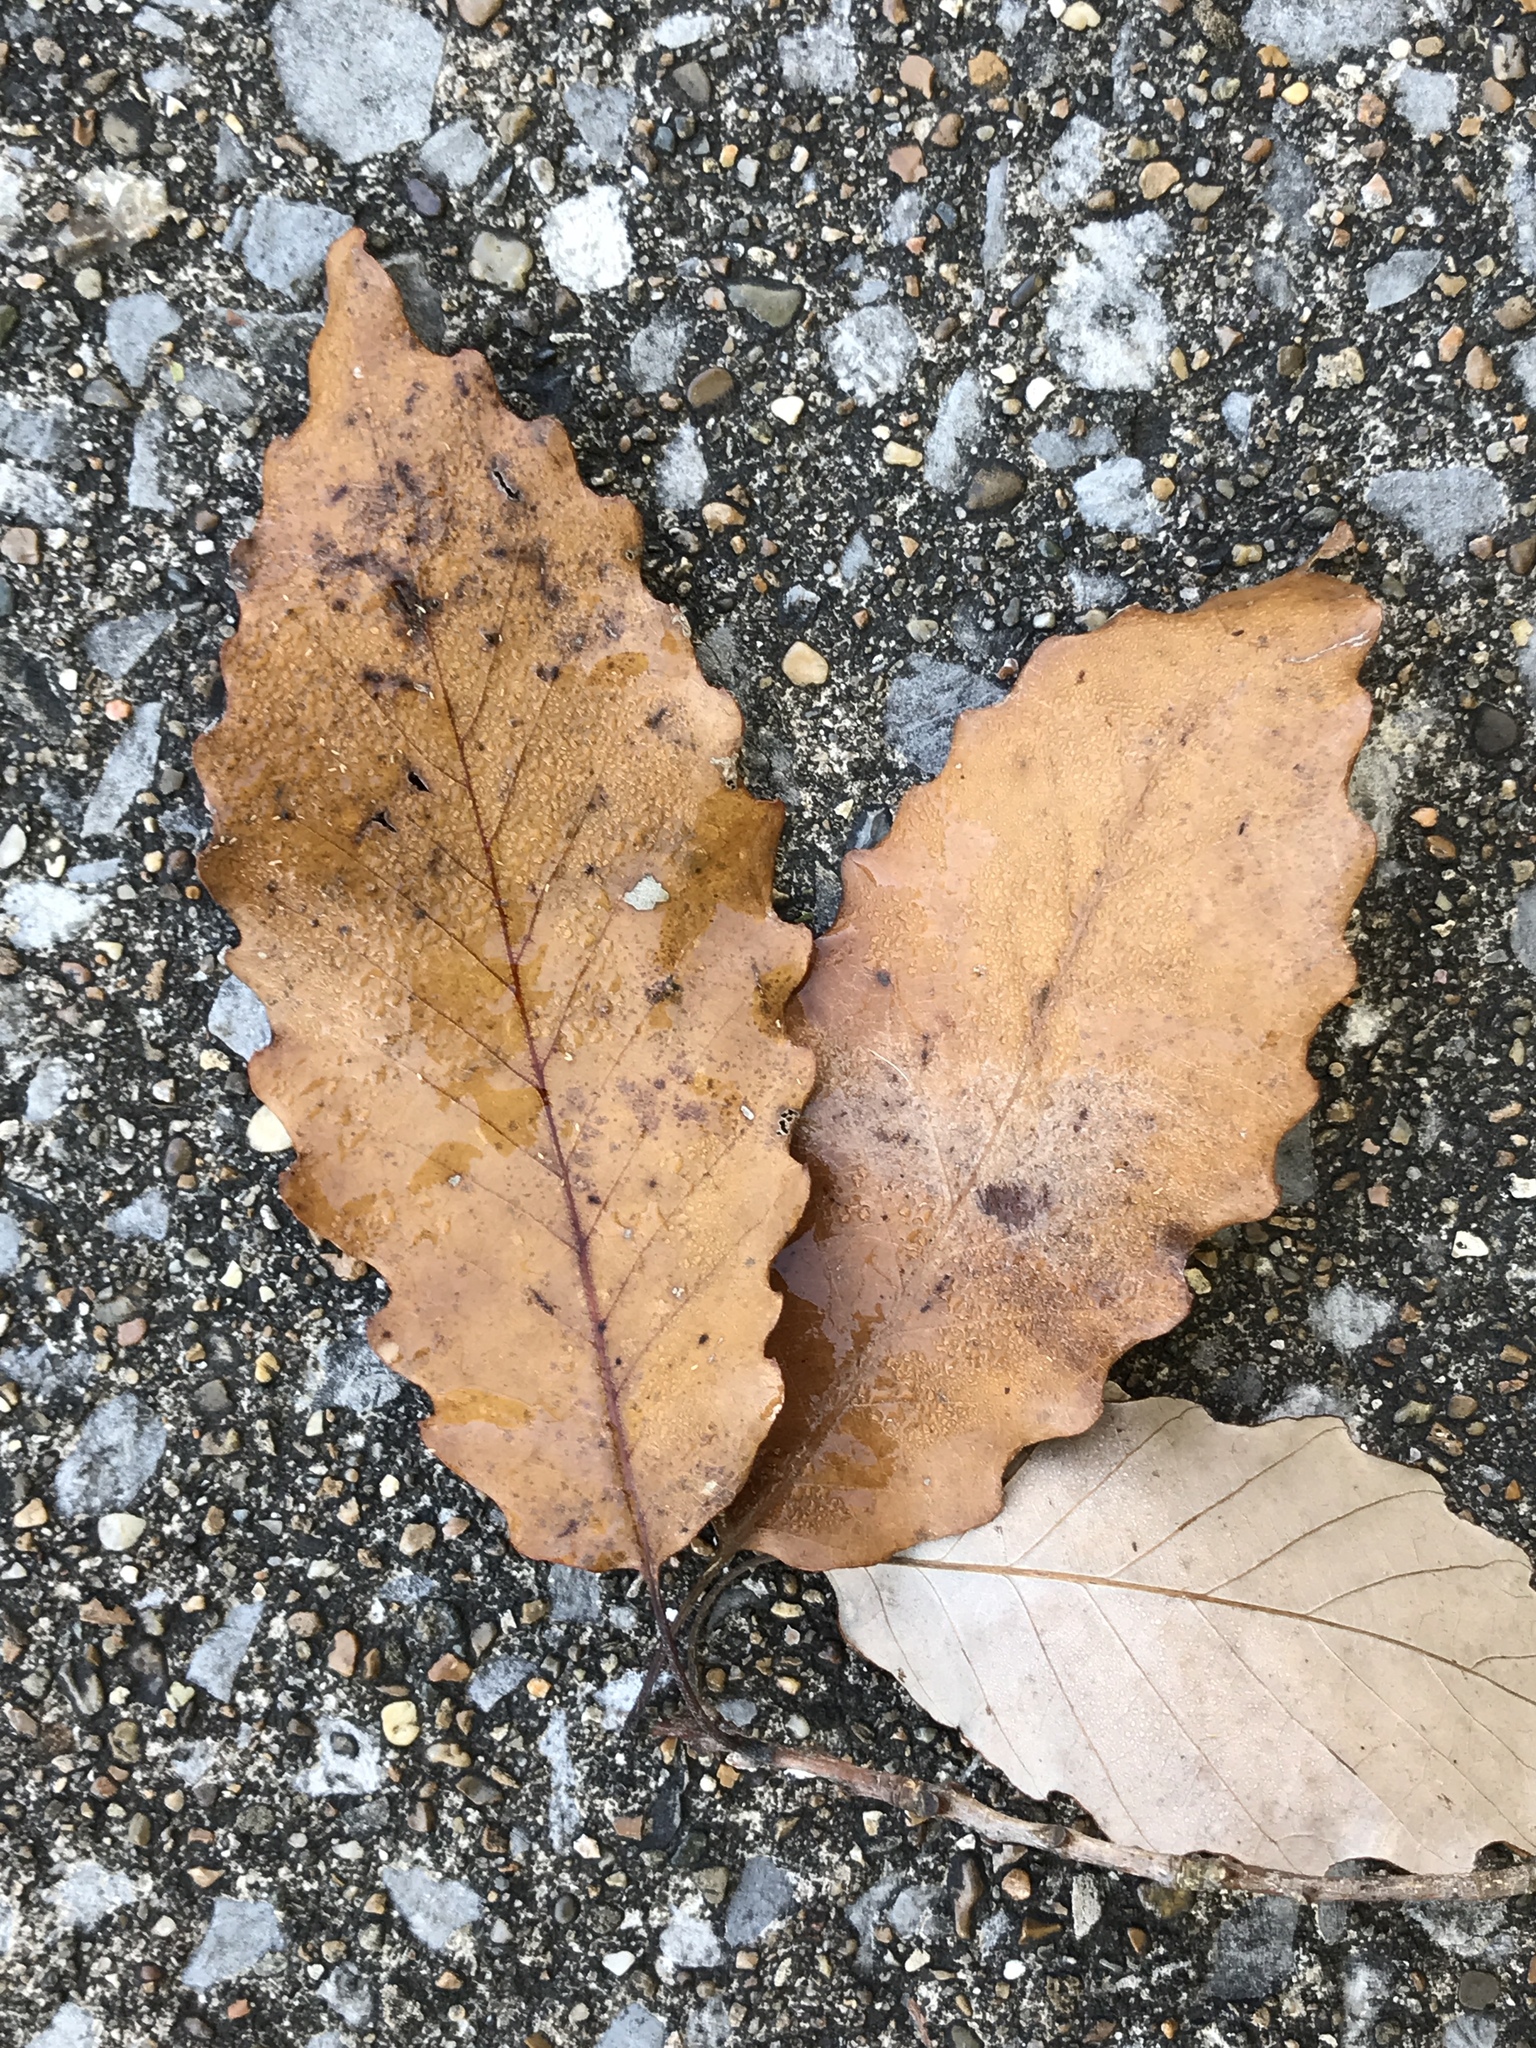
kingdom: Plantae
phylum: Tracheophyta
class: Magnoliopsida
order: Fagales
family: Fagaceae
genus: Quercus
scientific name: Quercus muehlenbergii
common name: Chinkapin oak
